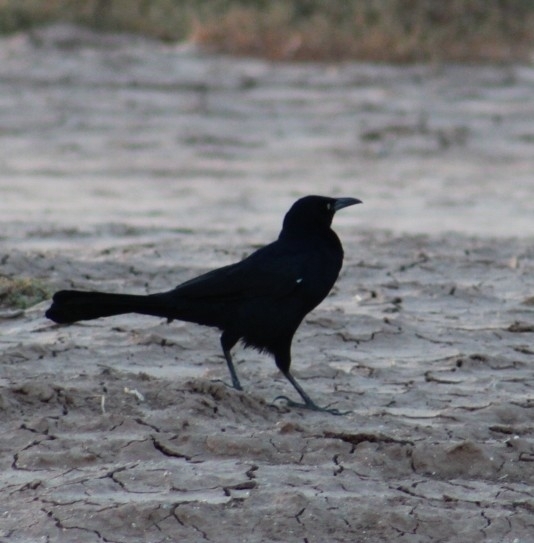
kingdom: Animalia
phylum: Chordata
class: Aves
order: Passeriformes
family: Icteridae
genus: Quiscalus
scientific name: Quiscalus mexicanus
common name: Great-tailed grackle
